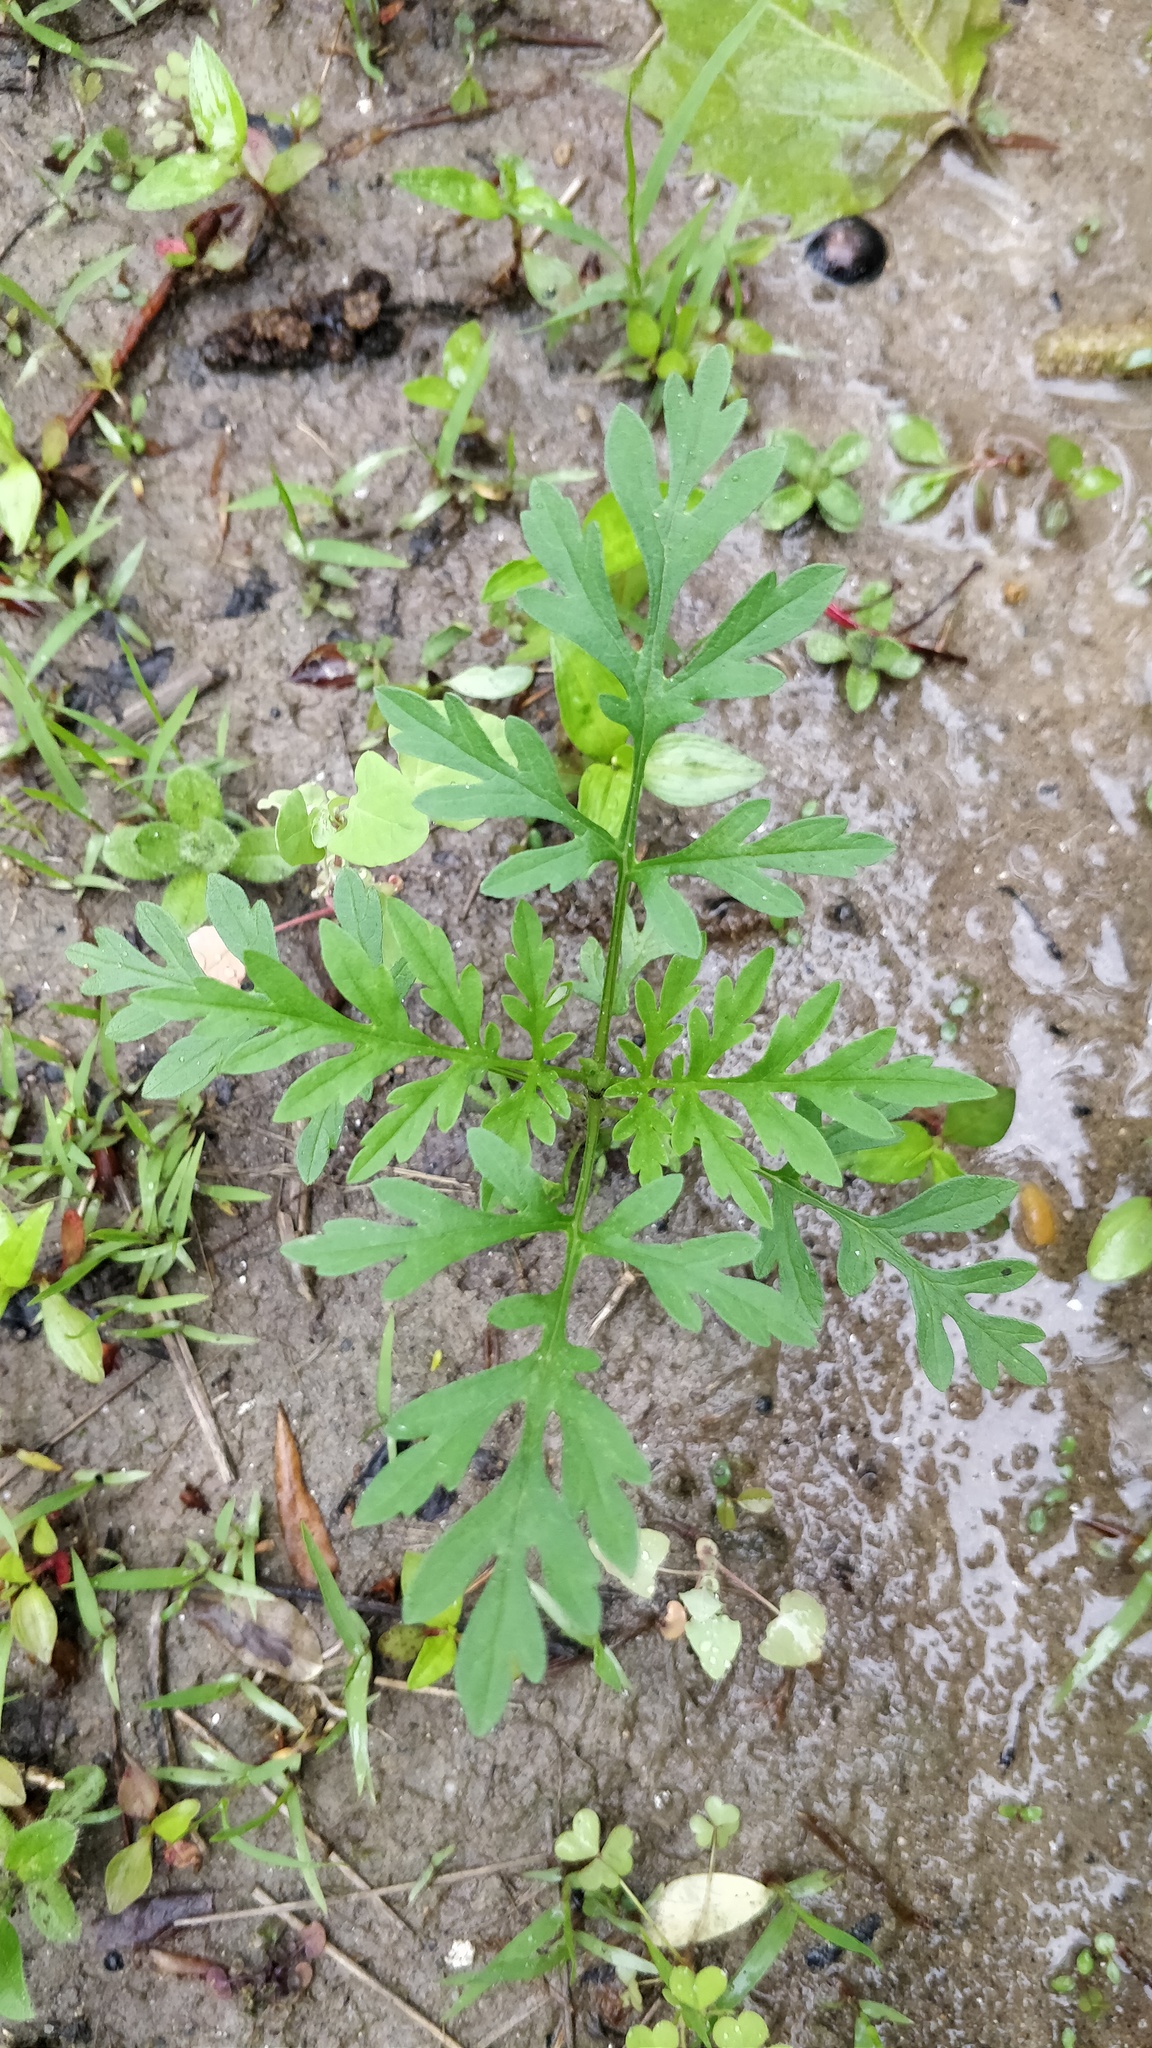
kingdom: Plantae
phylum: Tracheophyta
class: Magnoliopsida
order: Asterales
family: Asteraceae
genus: Bidens
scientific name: Bidens bipinnata
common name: Spanish-needles
